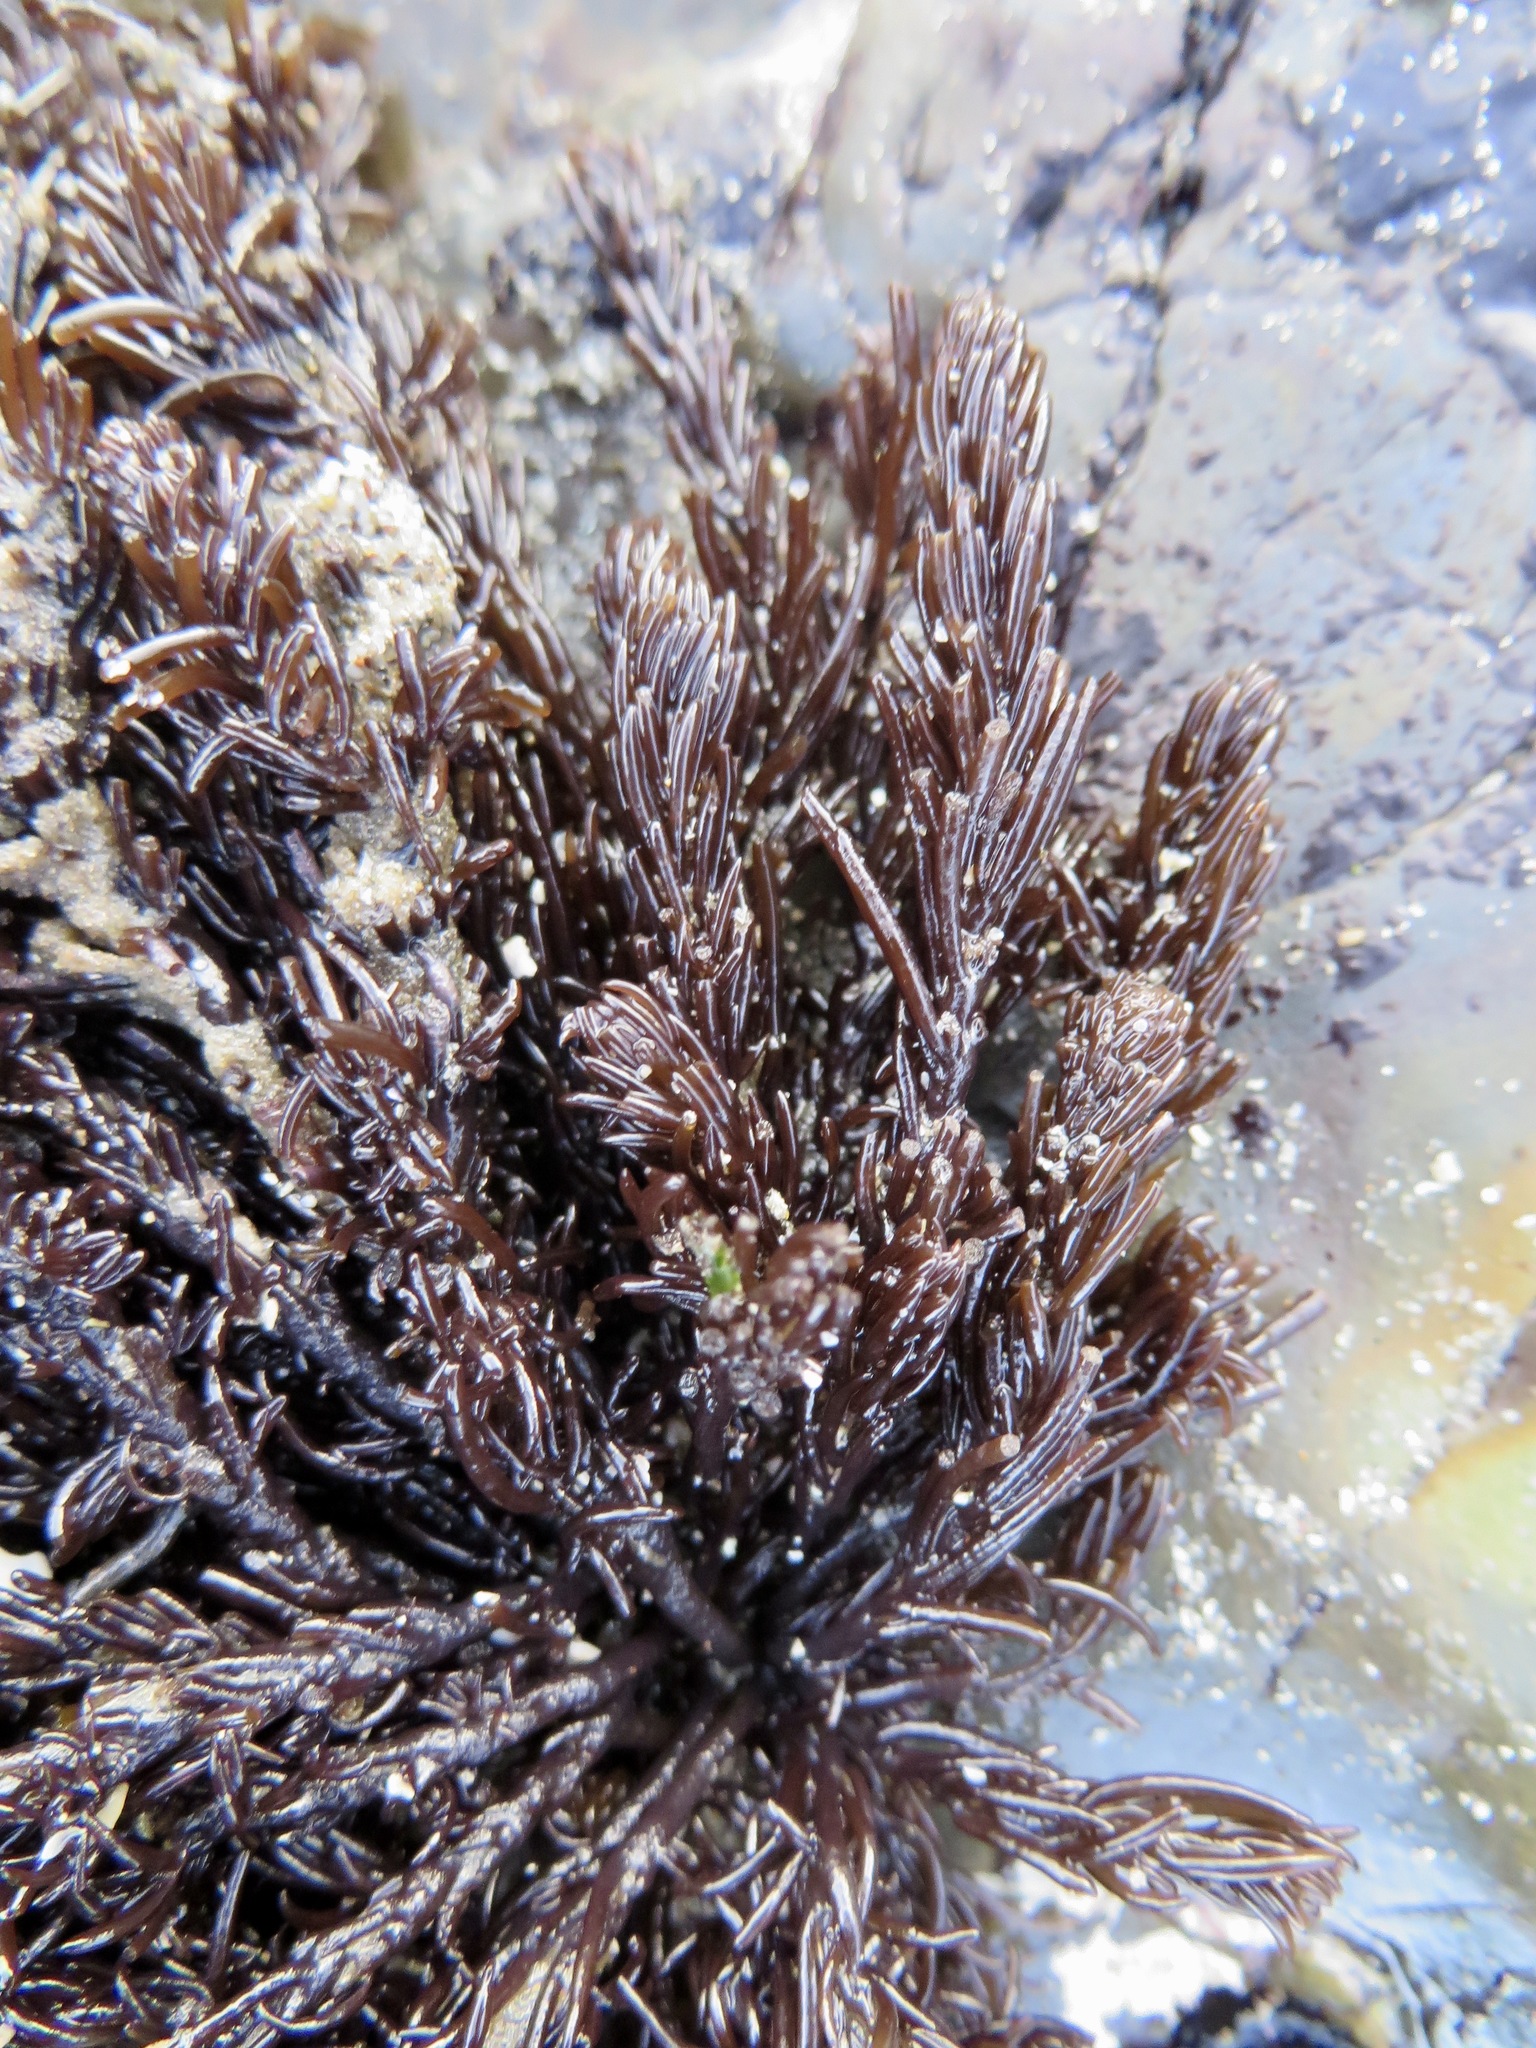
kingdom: Plantae
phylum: Rhodophyta
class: Florideophyceae
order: Ceramiales
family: Rhodomelaceae
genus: Neorhodomela
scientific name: Neorhodomela larix
